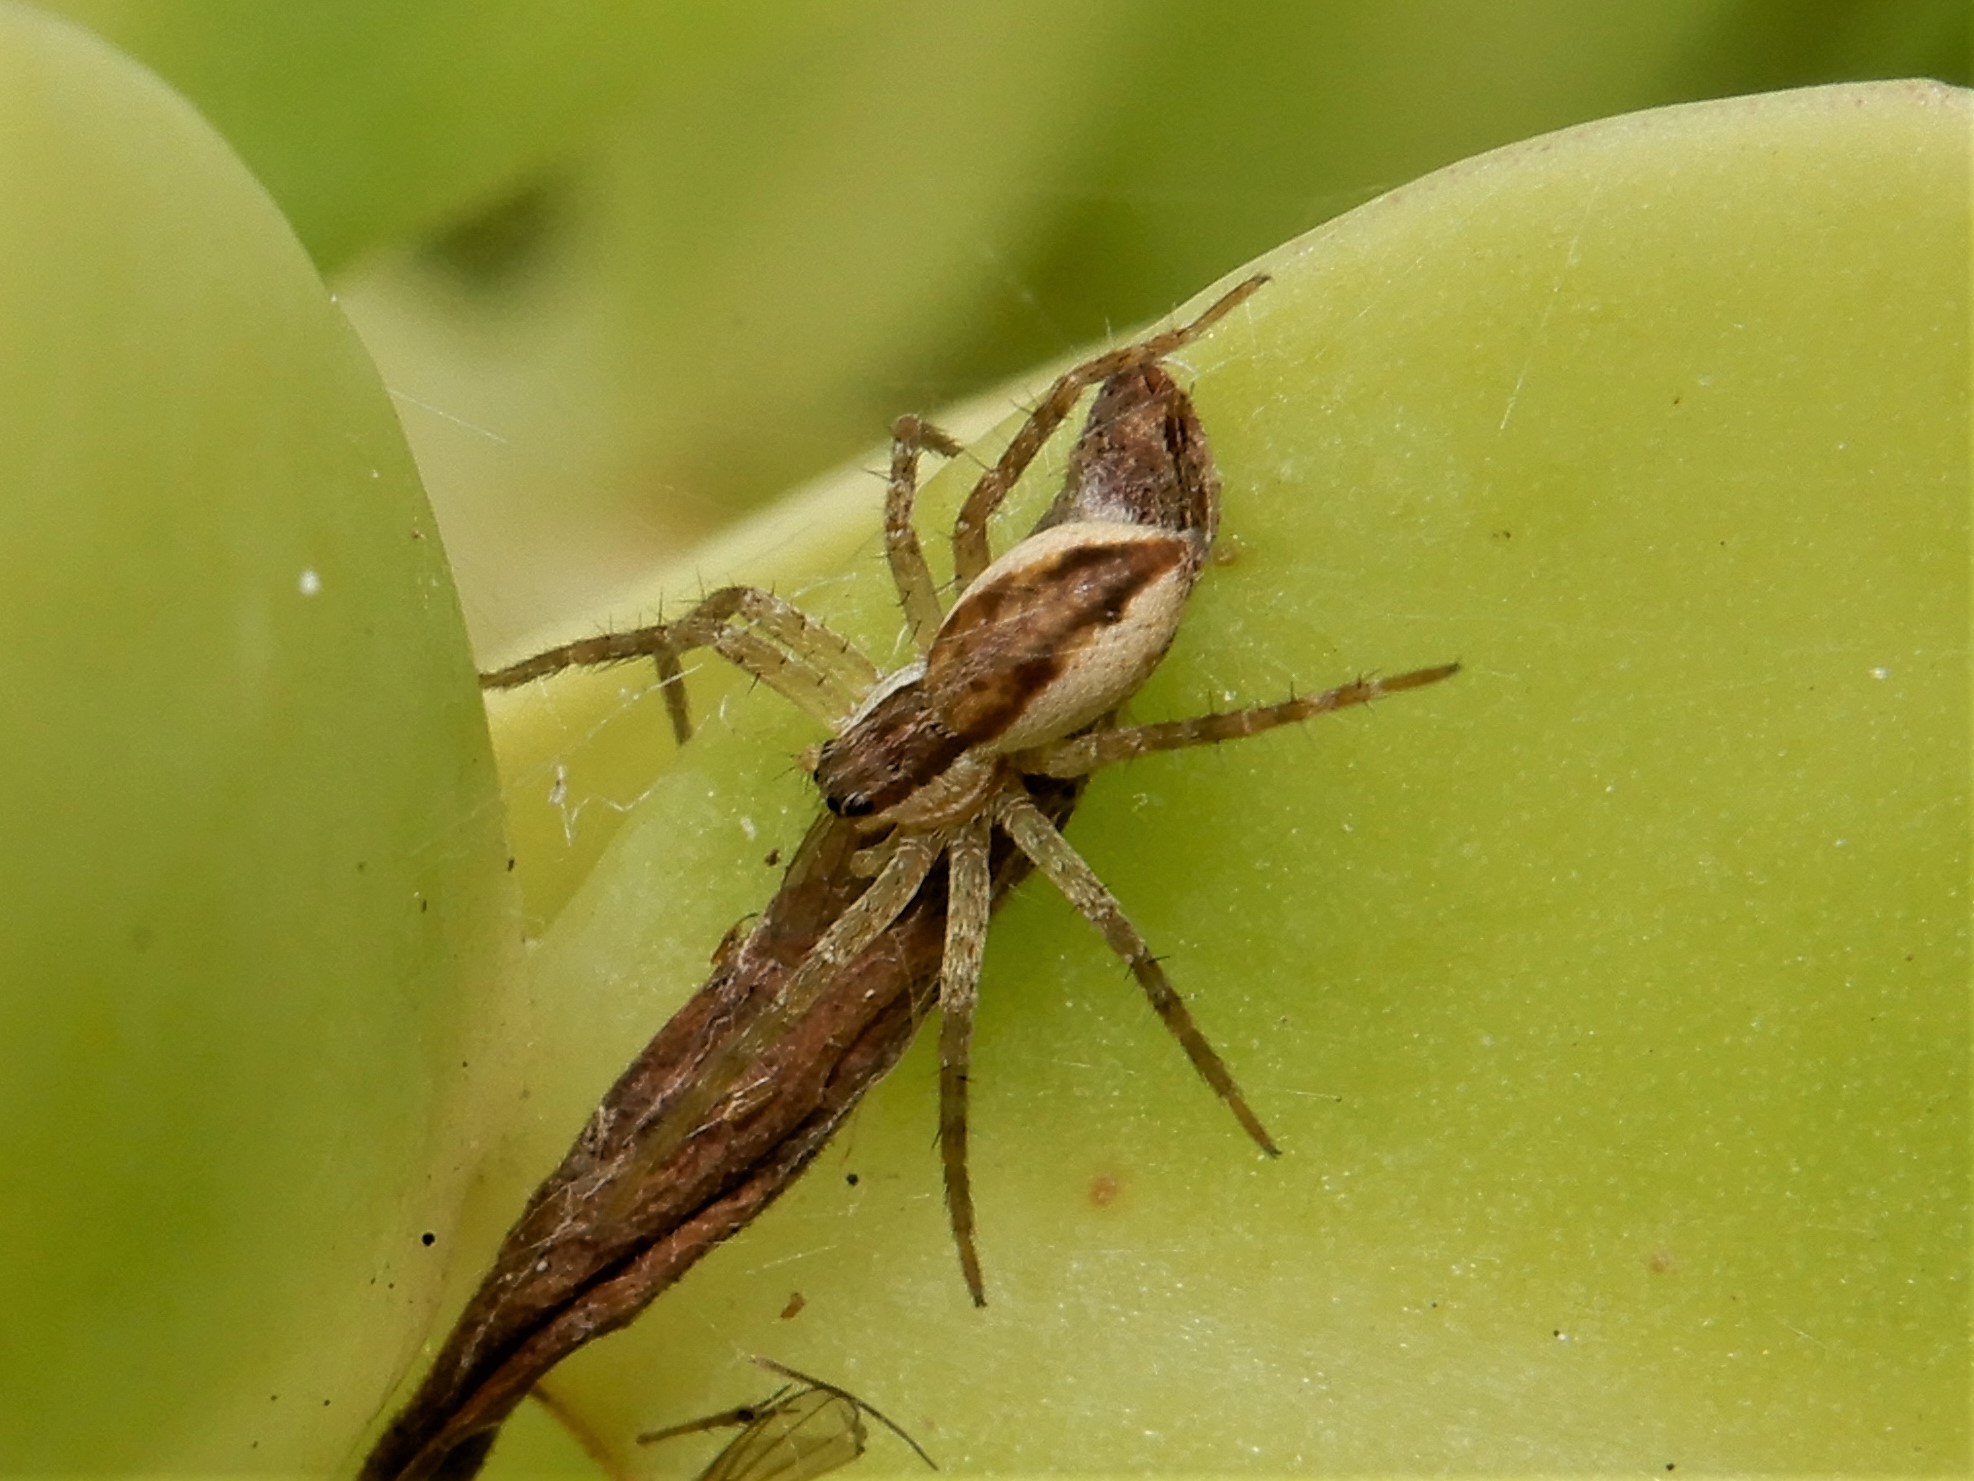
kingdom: Animalia
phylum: Arthropoda
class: Arachnida
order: Araneae
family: Pisauridae
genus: Dolomedes
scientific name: Dolomedes minor
